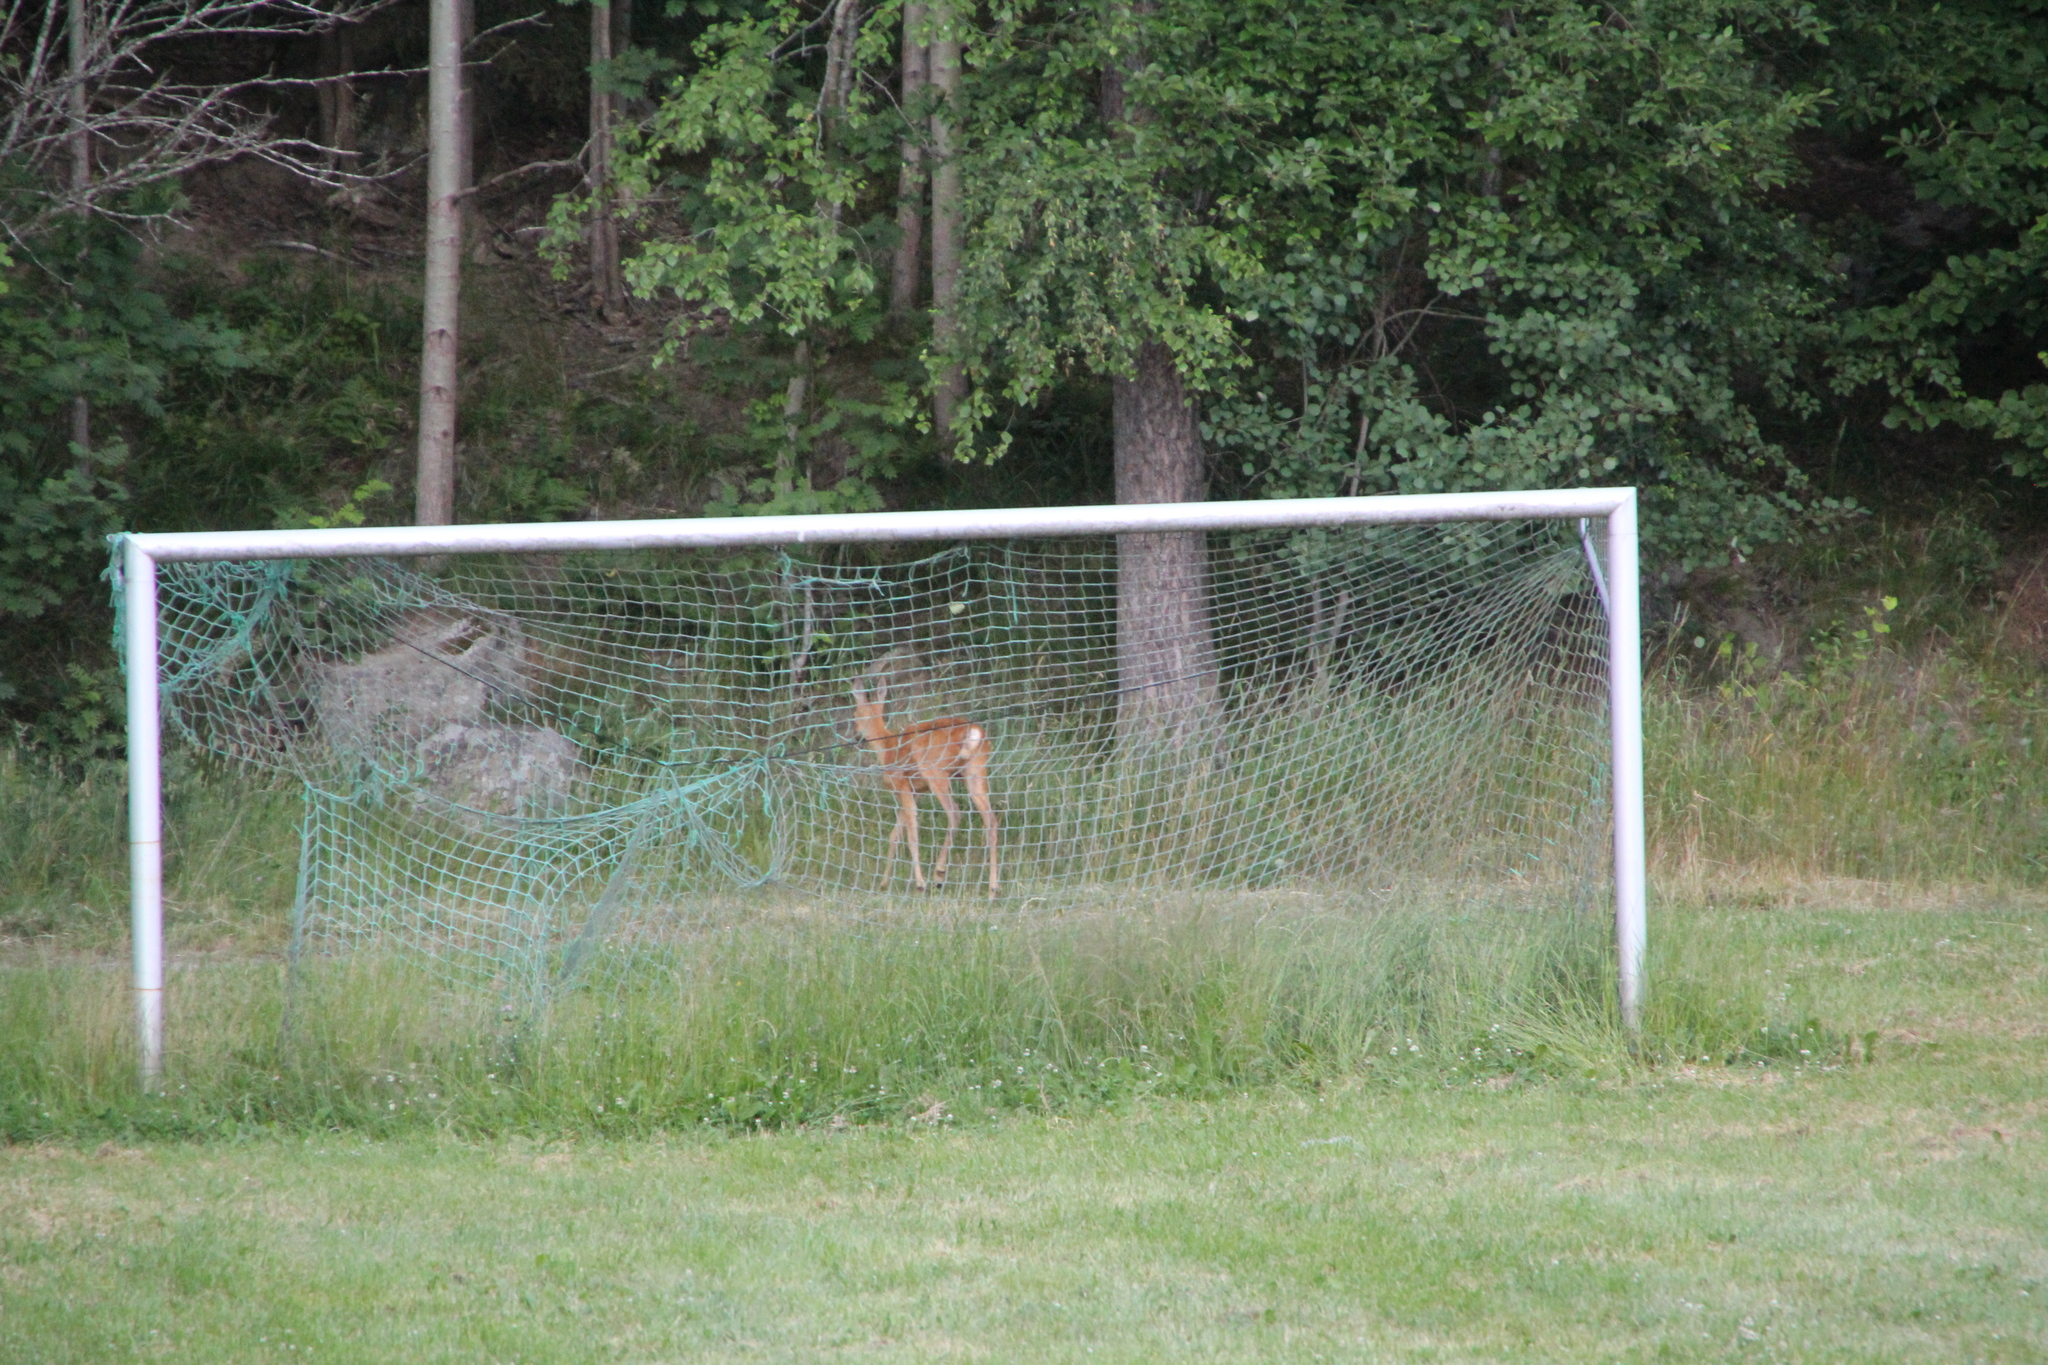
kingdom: Animalia
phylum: Chordata
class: Mammalia
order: Artiodactyla
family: Cervidae
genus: Capreolus
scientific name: Capreolus capreolus
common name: Western roe deer
